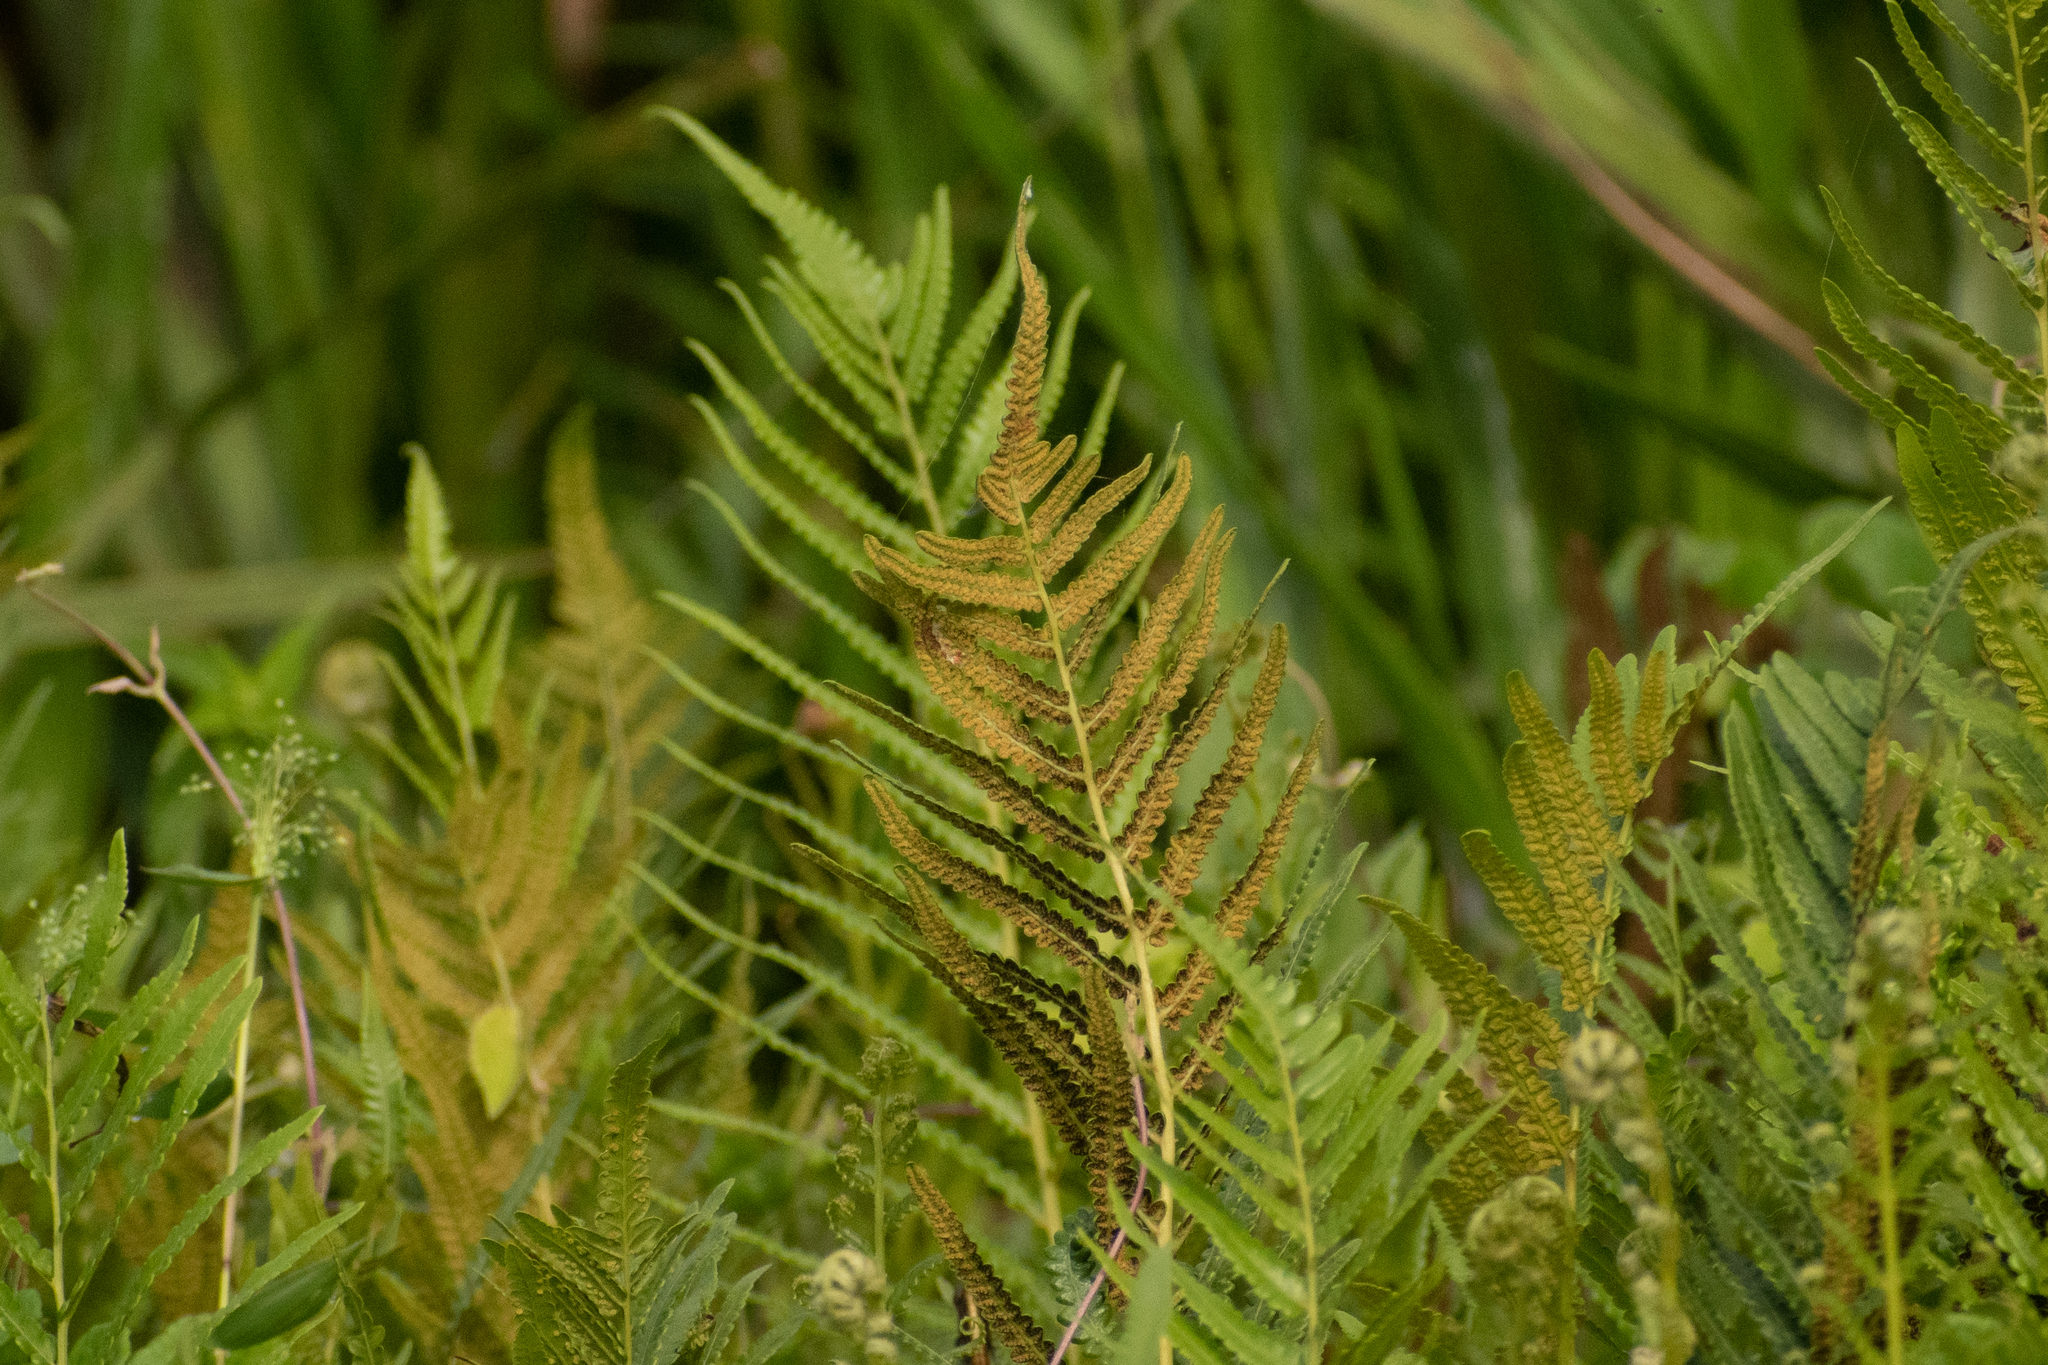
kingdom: Plantae
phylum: Tracheophyta
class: Polypodiopsida
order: Polypodiales
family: Thelypteridaceae
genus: Cyclosorus
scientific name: Cyclosorus interruptus
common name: Neke fern
